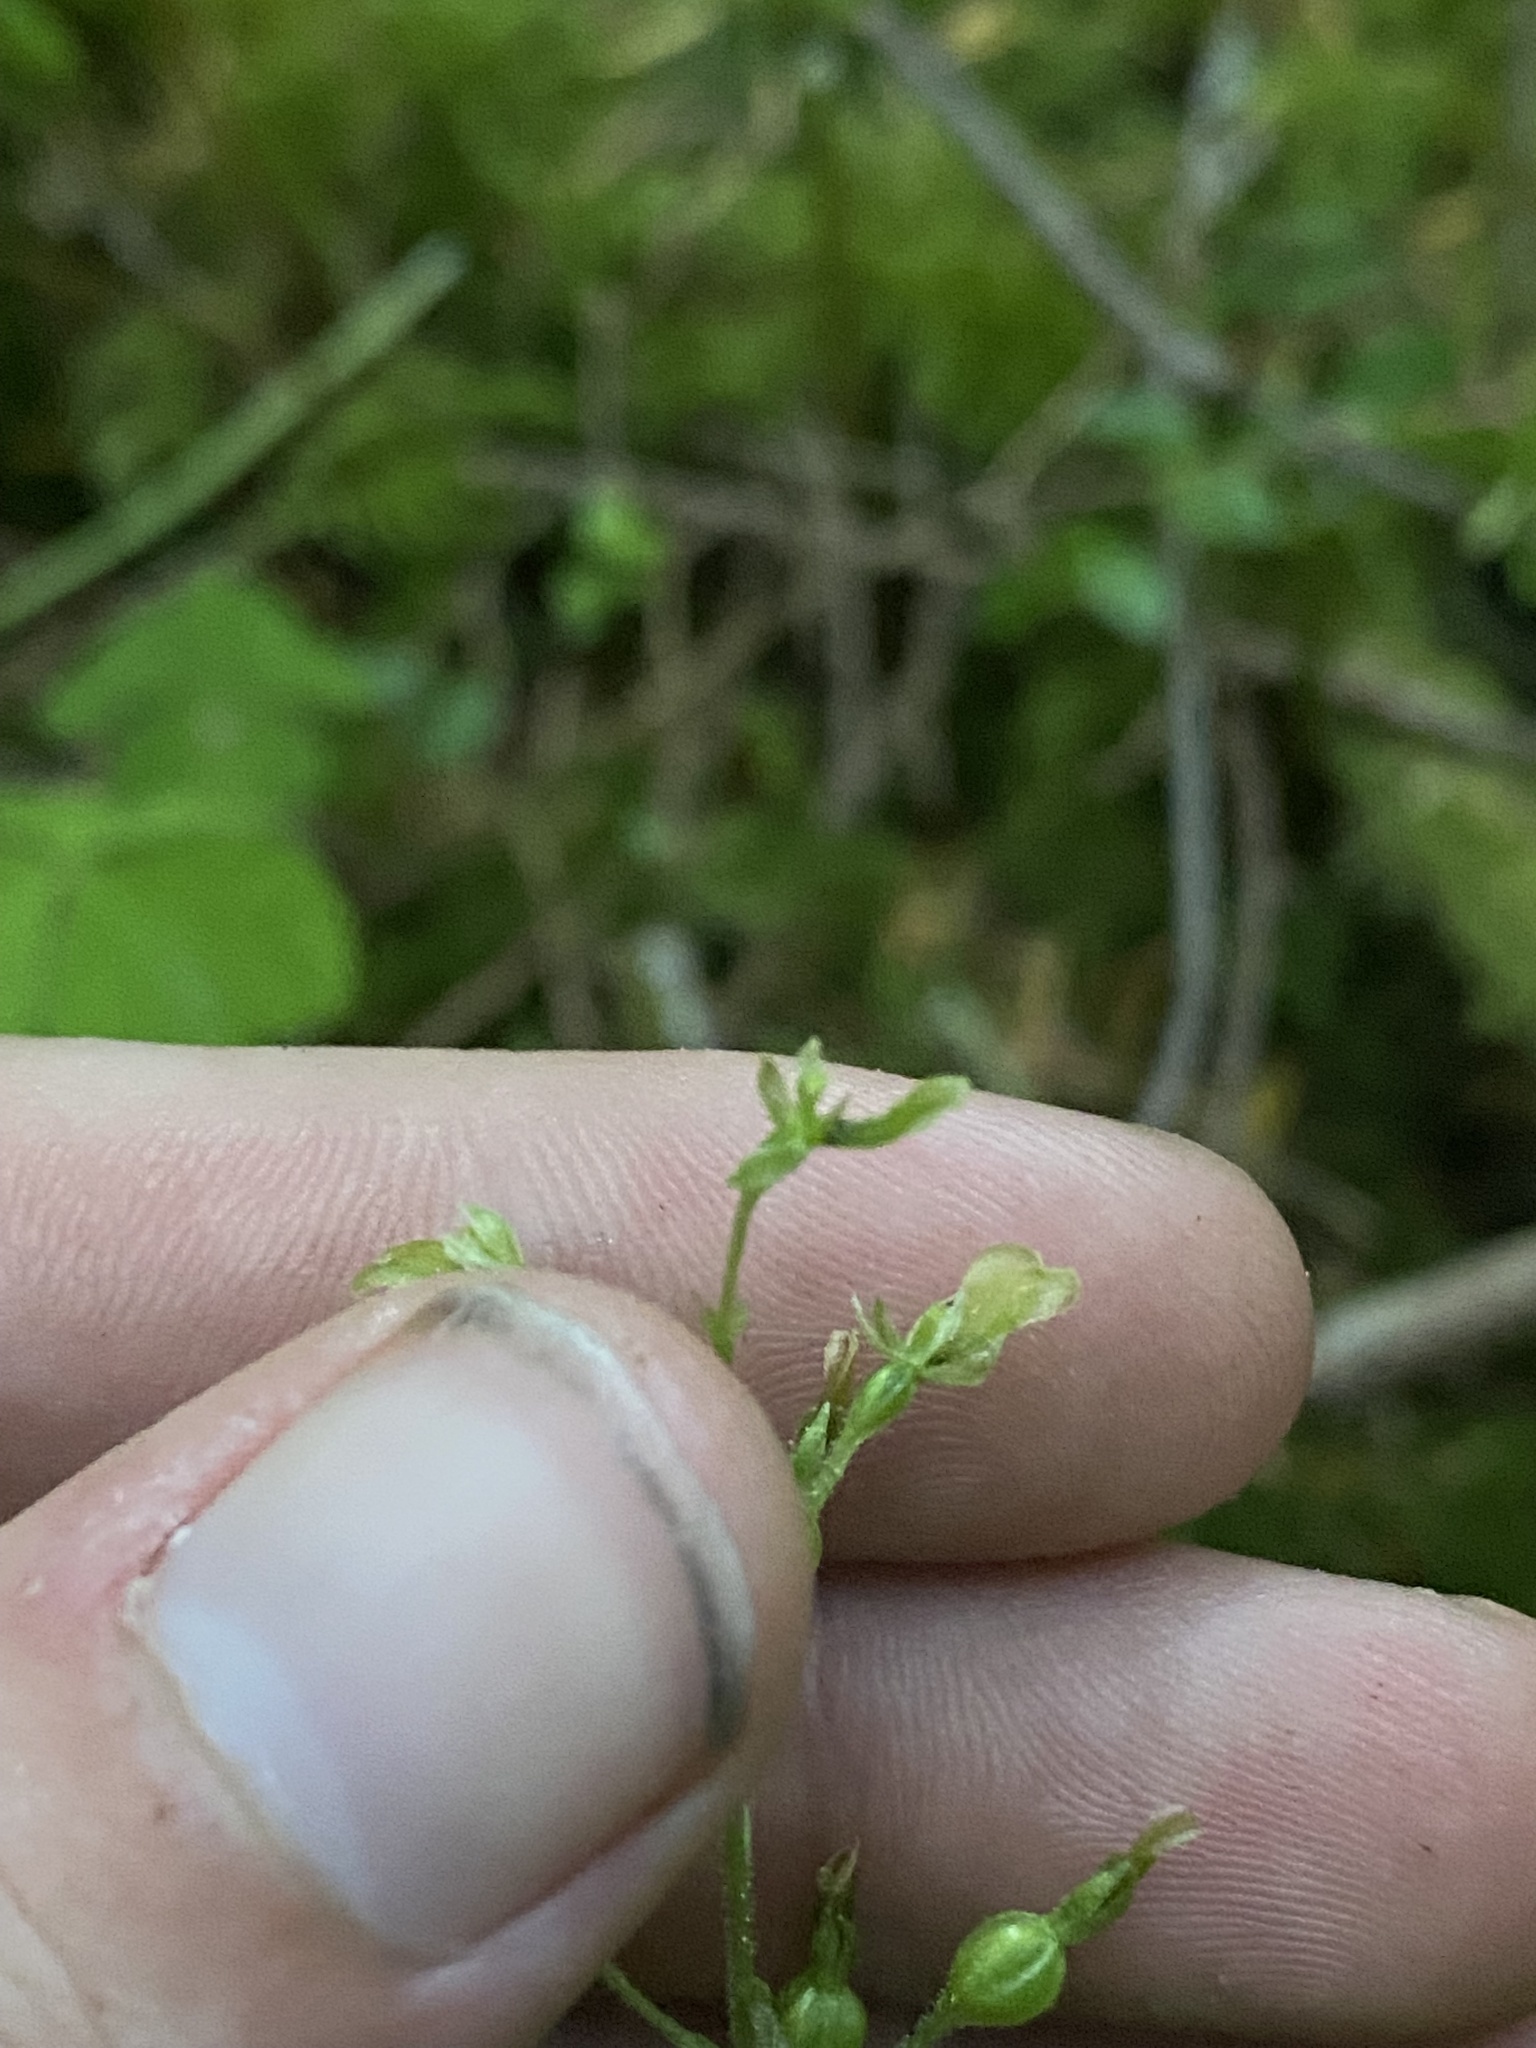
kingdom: Plantae
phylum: Tracheophyta
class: Liliopsida
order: Asparagales
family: Orchidaceae
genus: Neottia
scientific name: Neottia banksiana
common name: Northwestern twayblade
